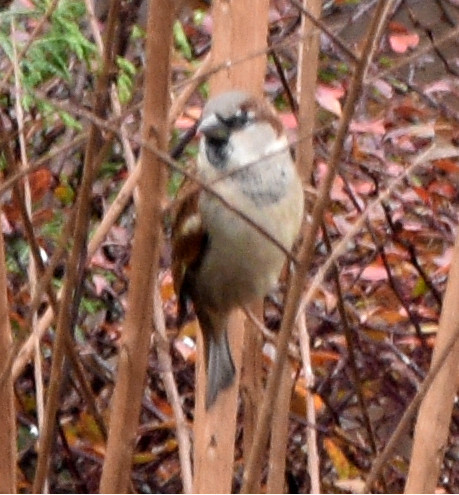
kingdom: Animalia
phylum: Chordata
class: Aves
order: Passeriformes
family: Passeridae
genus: Passer
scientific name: Passer domesticus
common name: House sparrow
